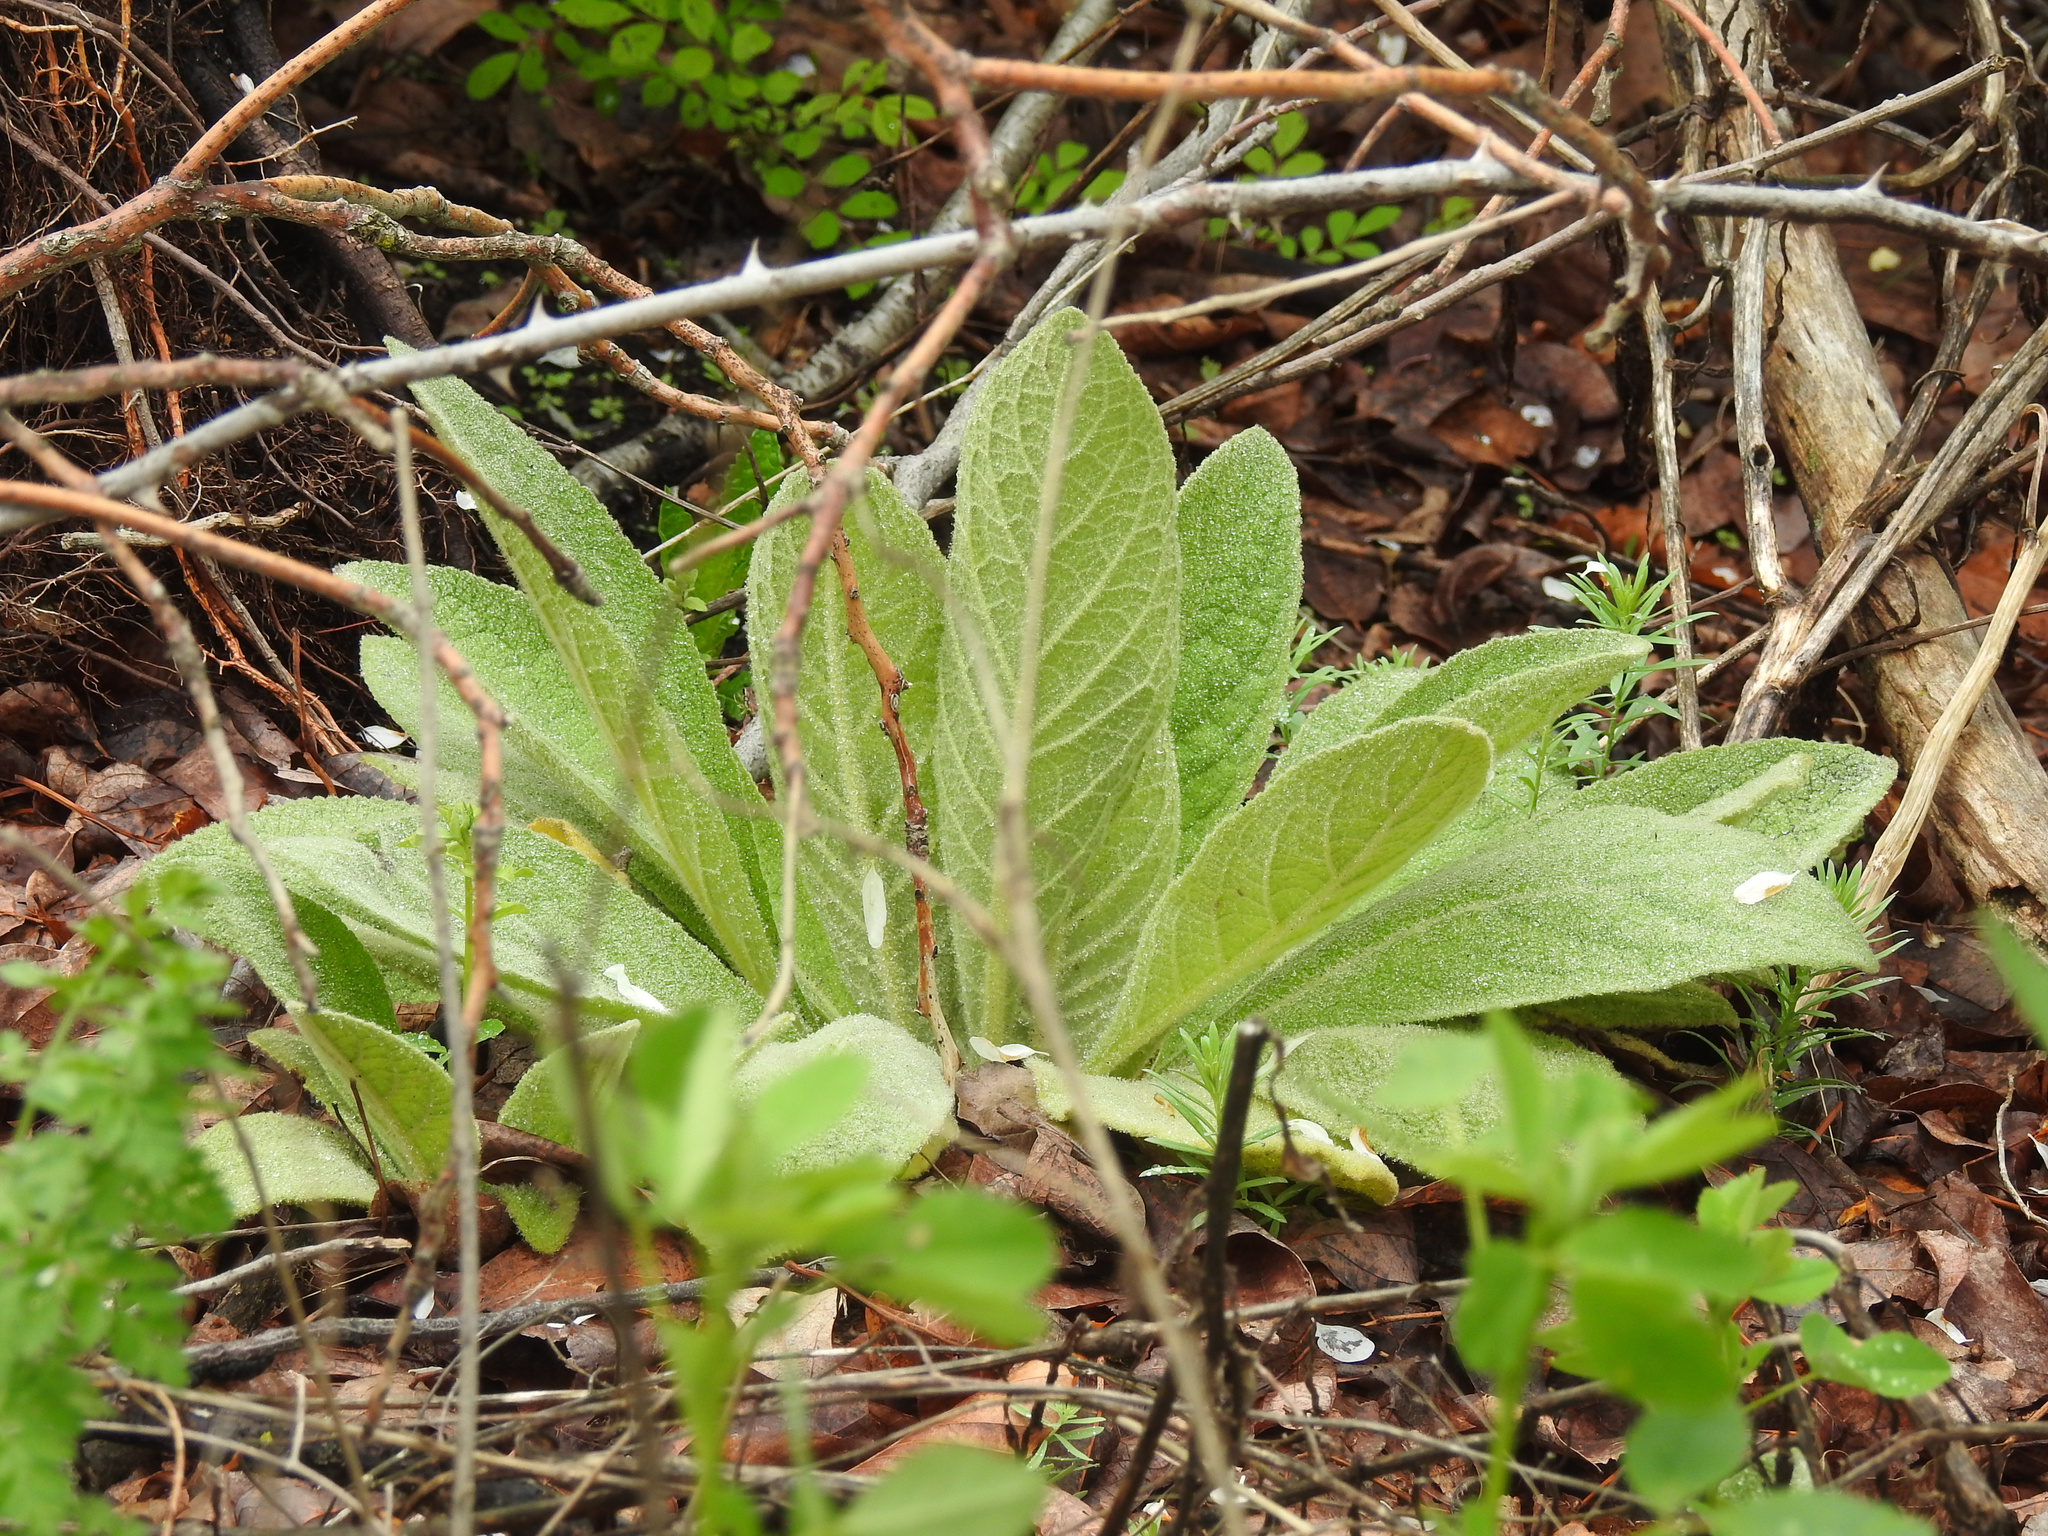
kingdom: Plantae
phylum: Tracheophyta
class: Magnoliopsida
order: Lamiales
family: Scrophulariaceae
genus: Verbascum
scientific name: Verbascum thapsus
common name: Common mullein
